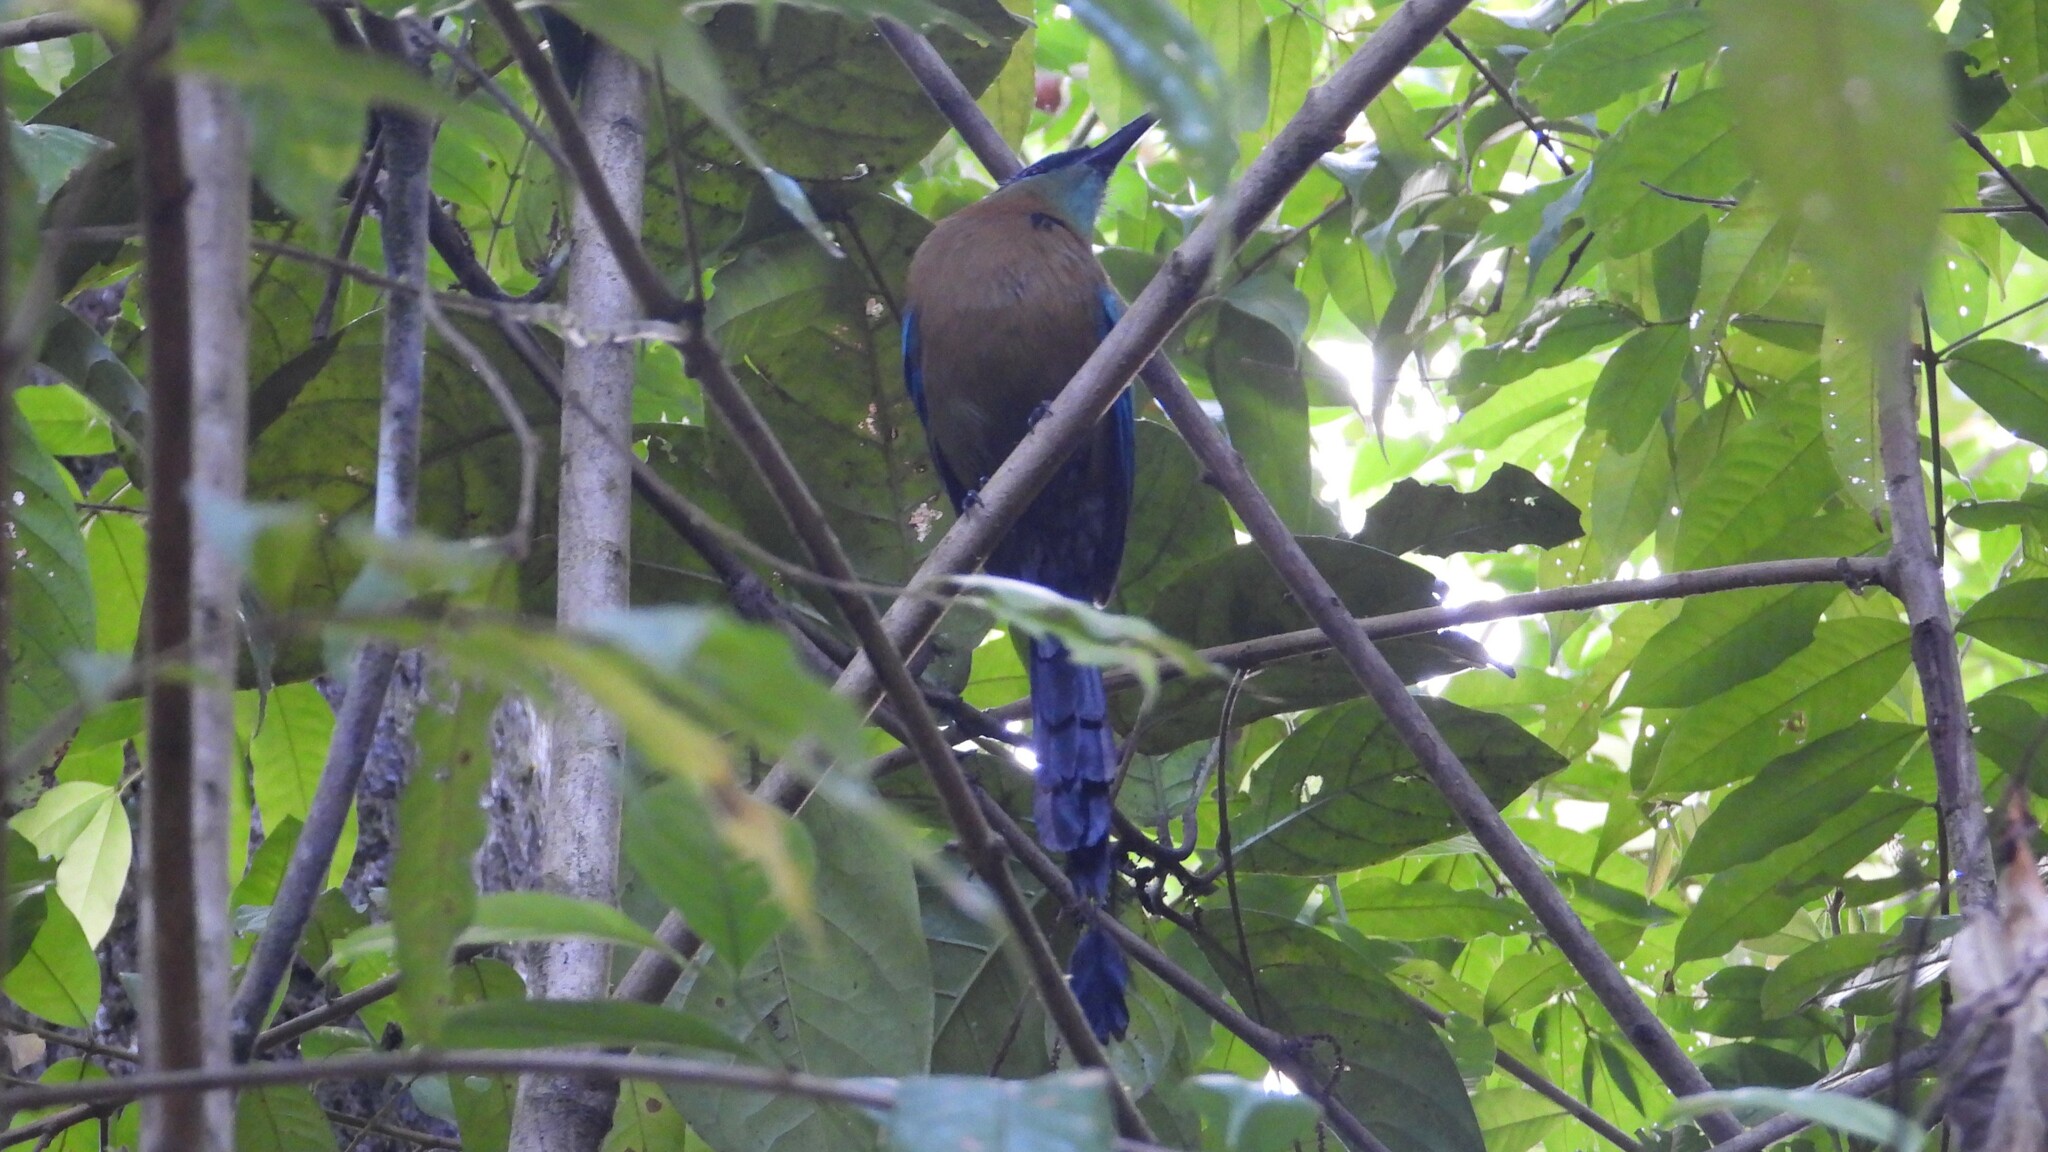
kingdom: Animalia
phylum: Chordata
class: Aves
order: Coraciiformes
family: Momotidae
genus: Momotus
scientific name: Momotus lessonii
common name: Lesson's motmot
